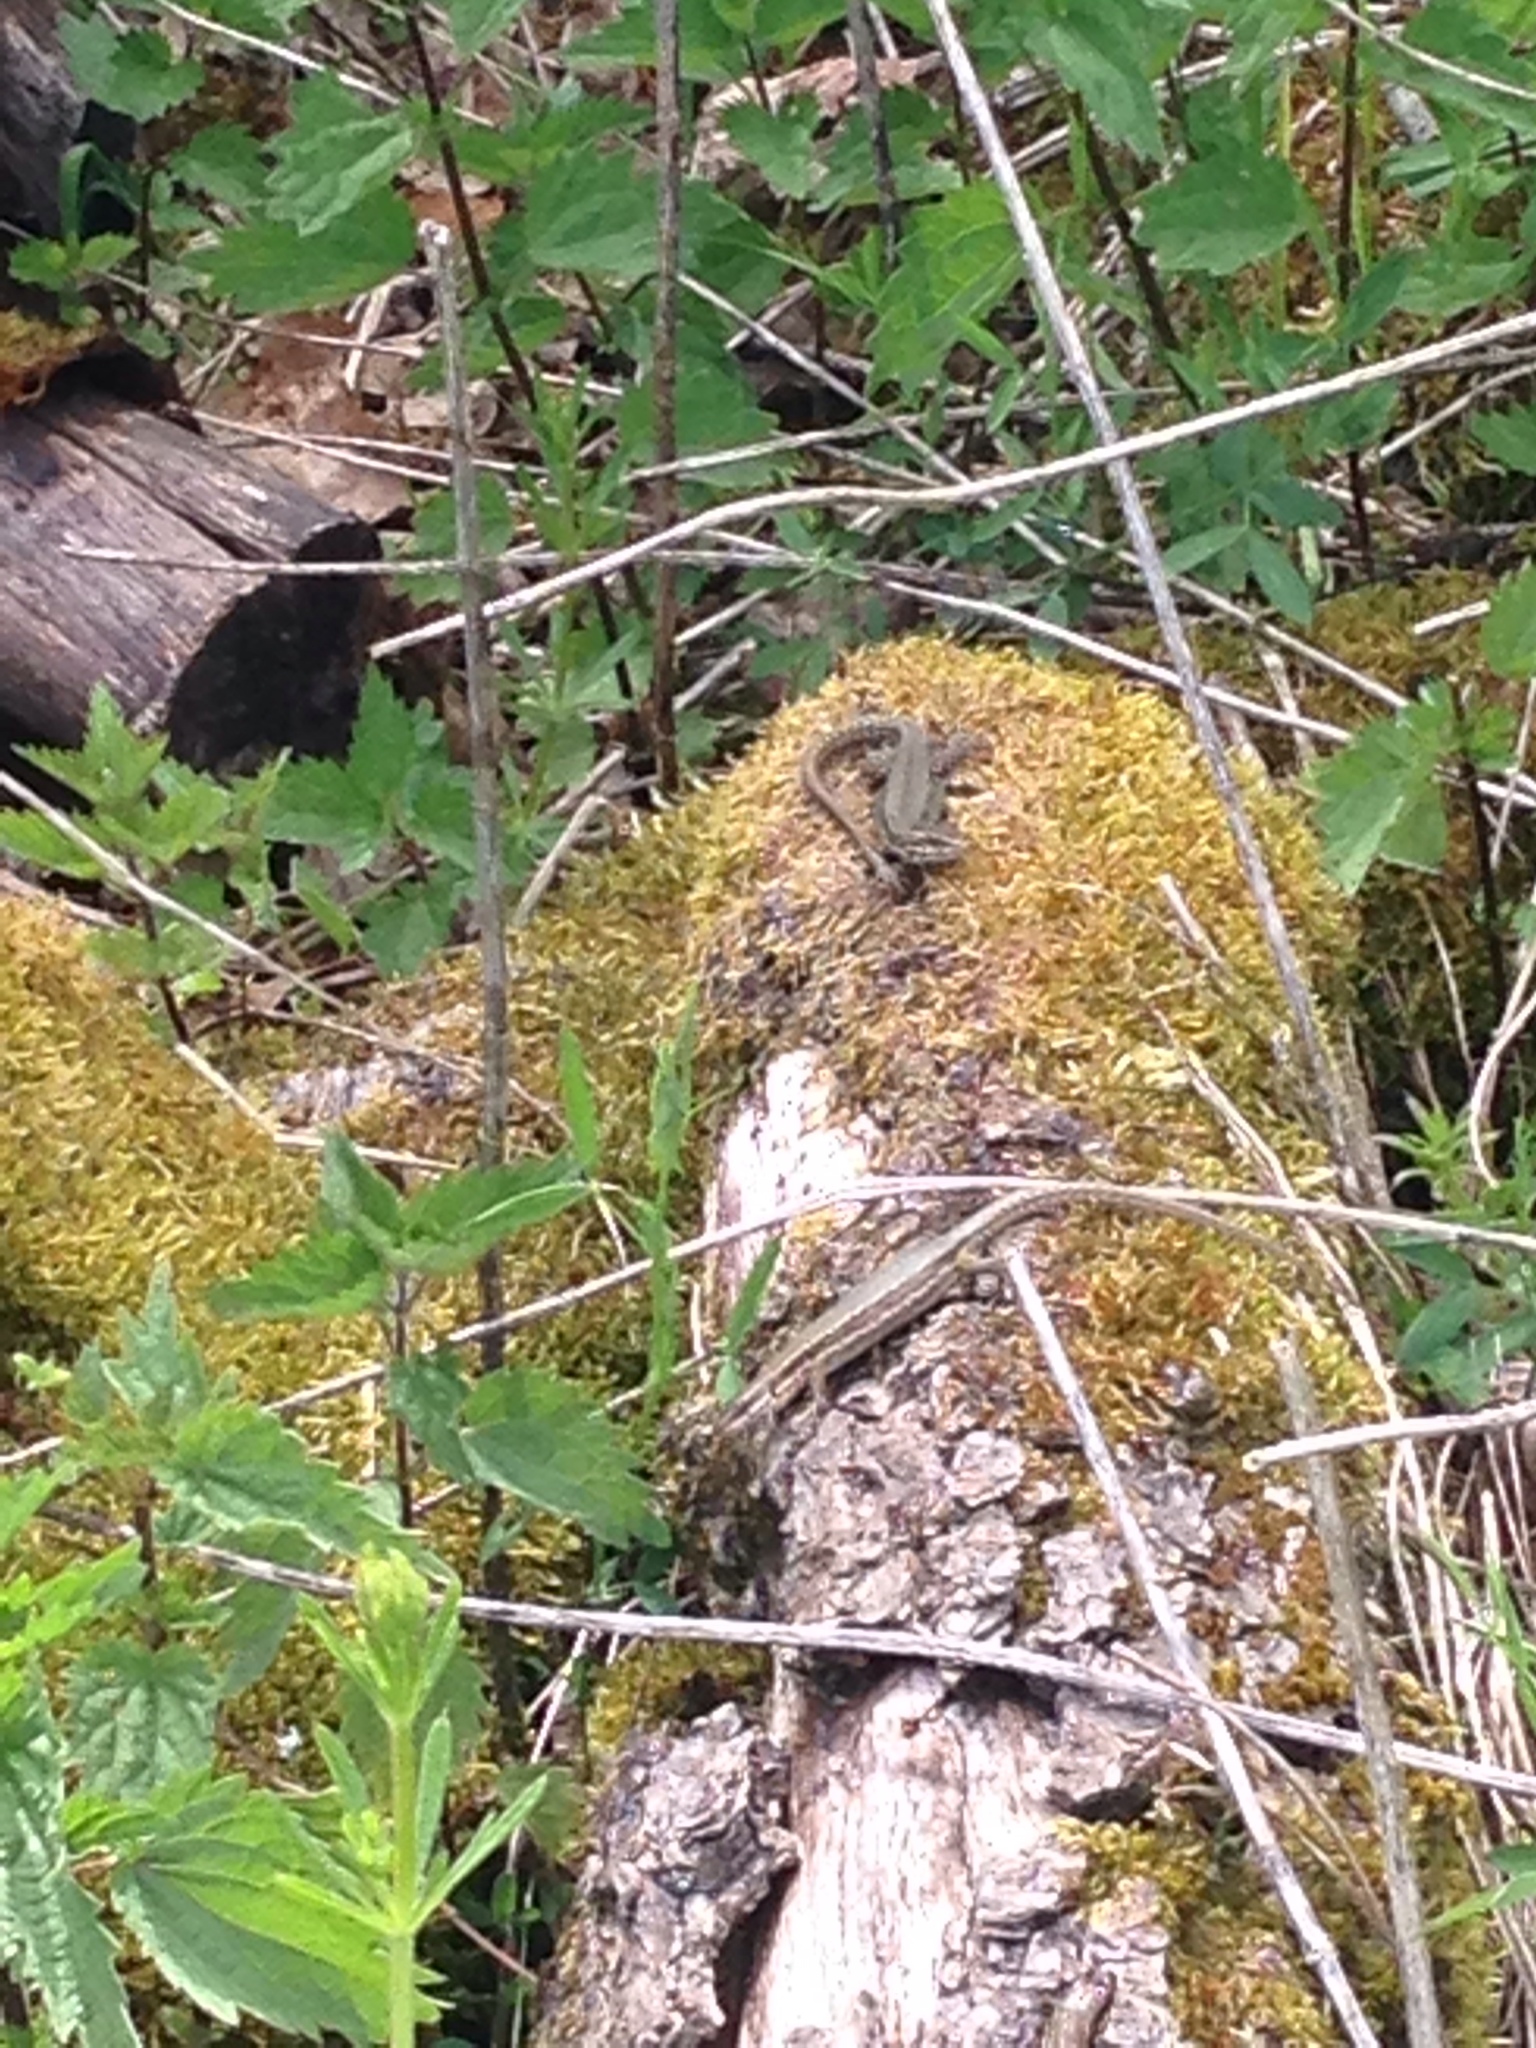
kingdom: Animalia
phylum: Chordata
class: Squamata
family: Lacertidae
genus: Podarcis
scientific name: Podarcis muralis
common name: Common wall lizard
